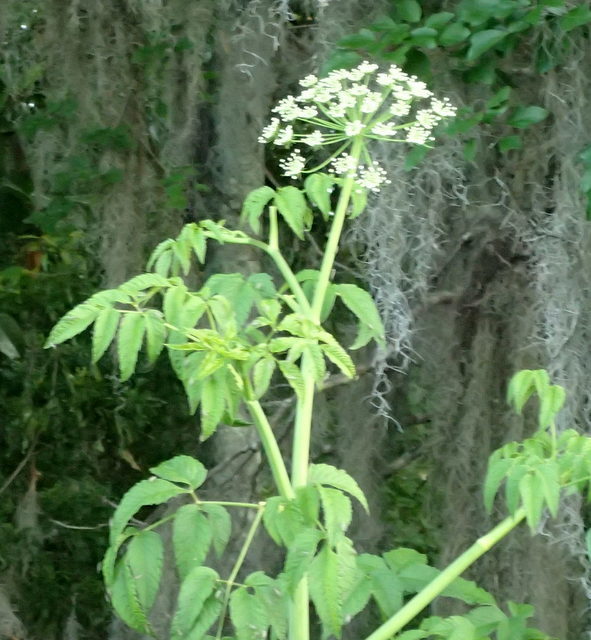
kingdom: Plantae
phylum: Tracheophyta
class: Magnoliopsida
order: Apiales
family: Apiaceae
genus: Cicuta
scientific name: Cicuta maculata
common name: Spotted cowbane
